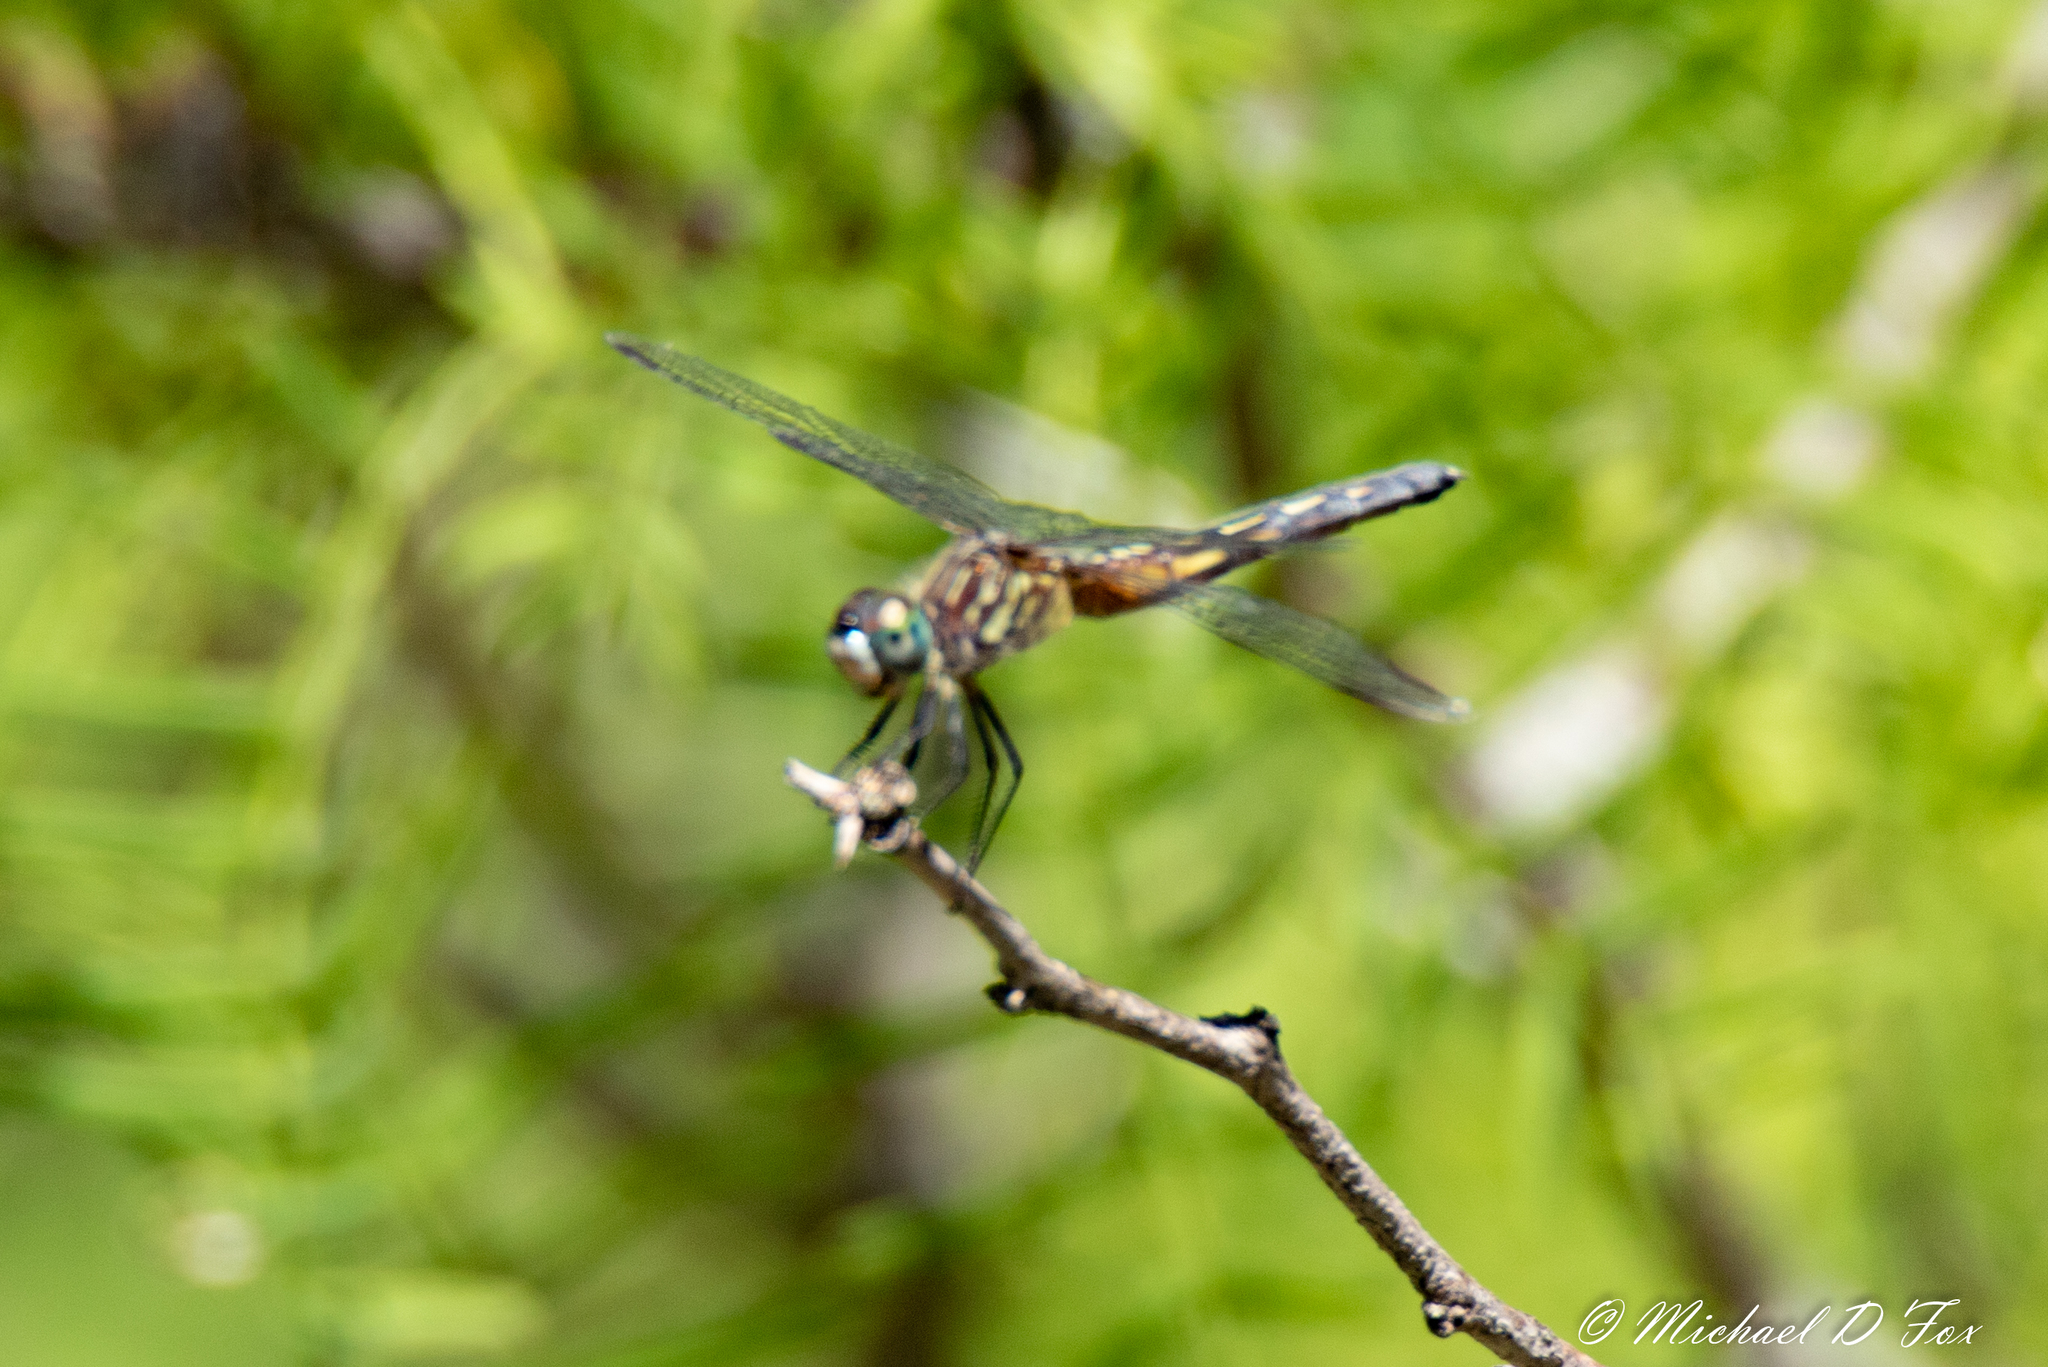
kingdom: Animalia
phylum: Arthropoda
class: Insecta
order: Odonata
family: Libellulidae
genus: Pachydiplax
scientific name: Pachydiplax longipennis
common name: Blue dasher
